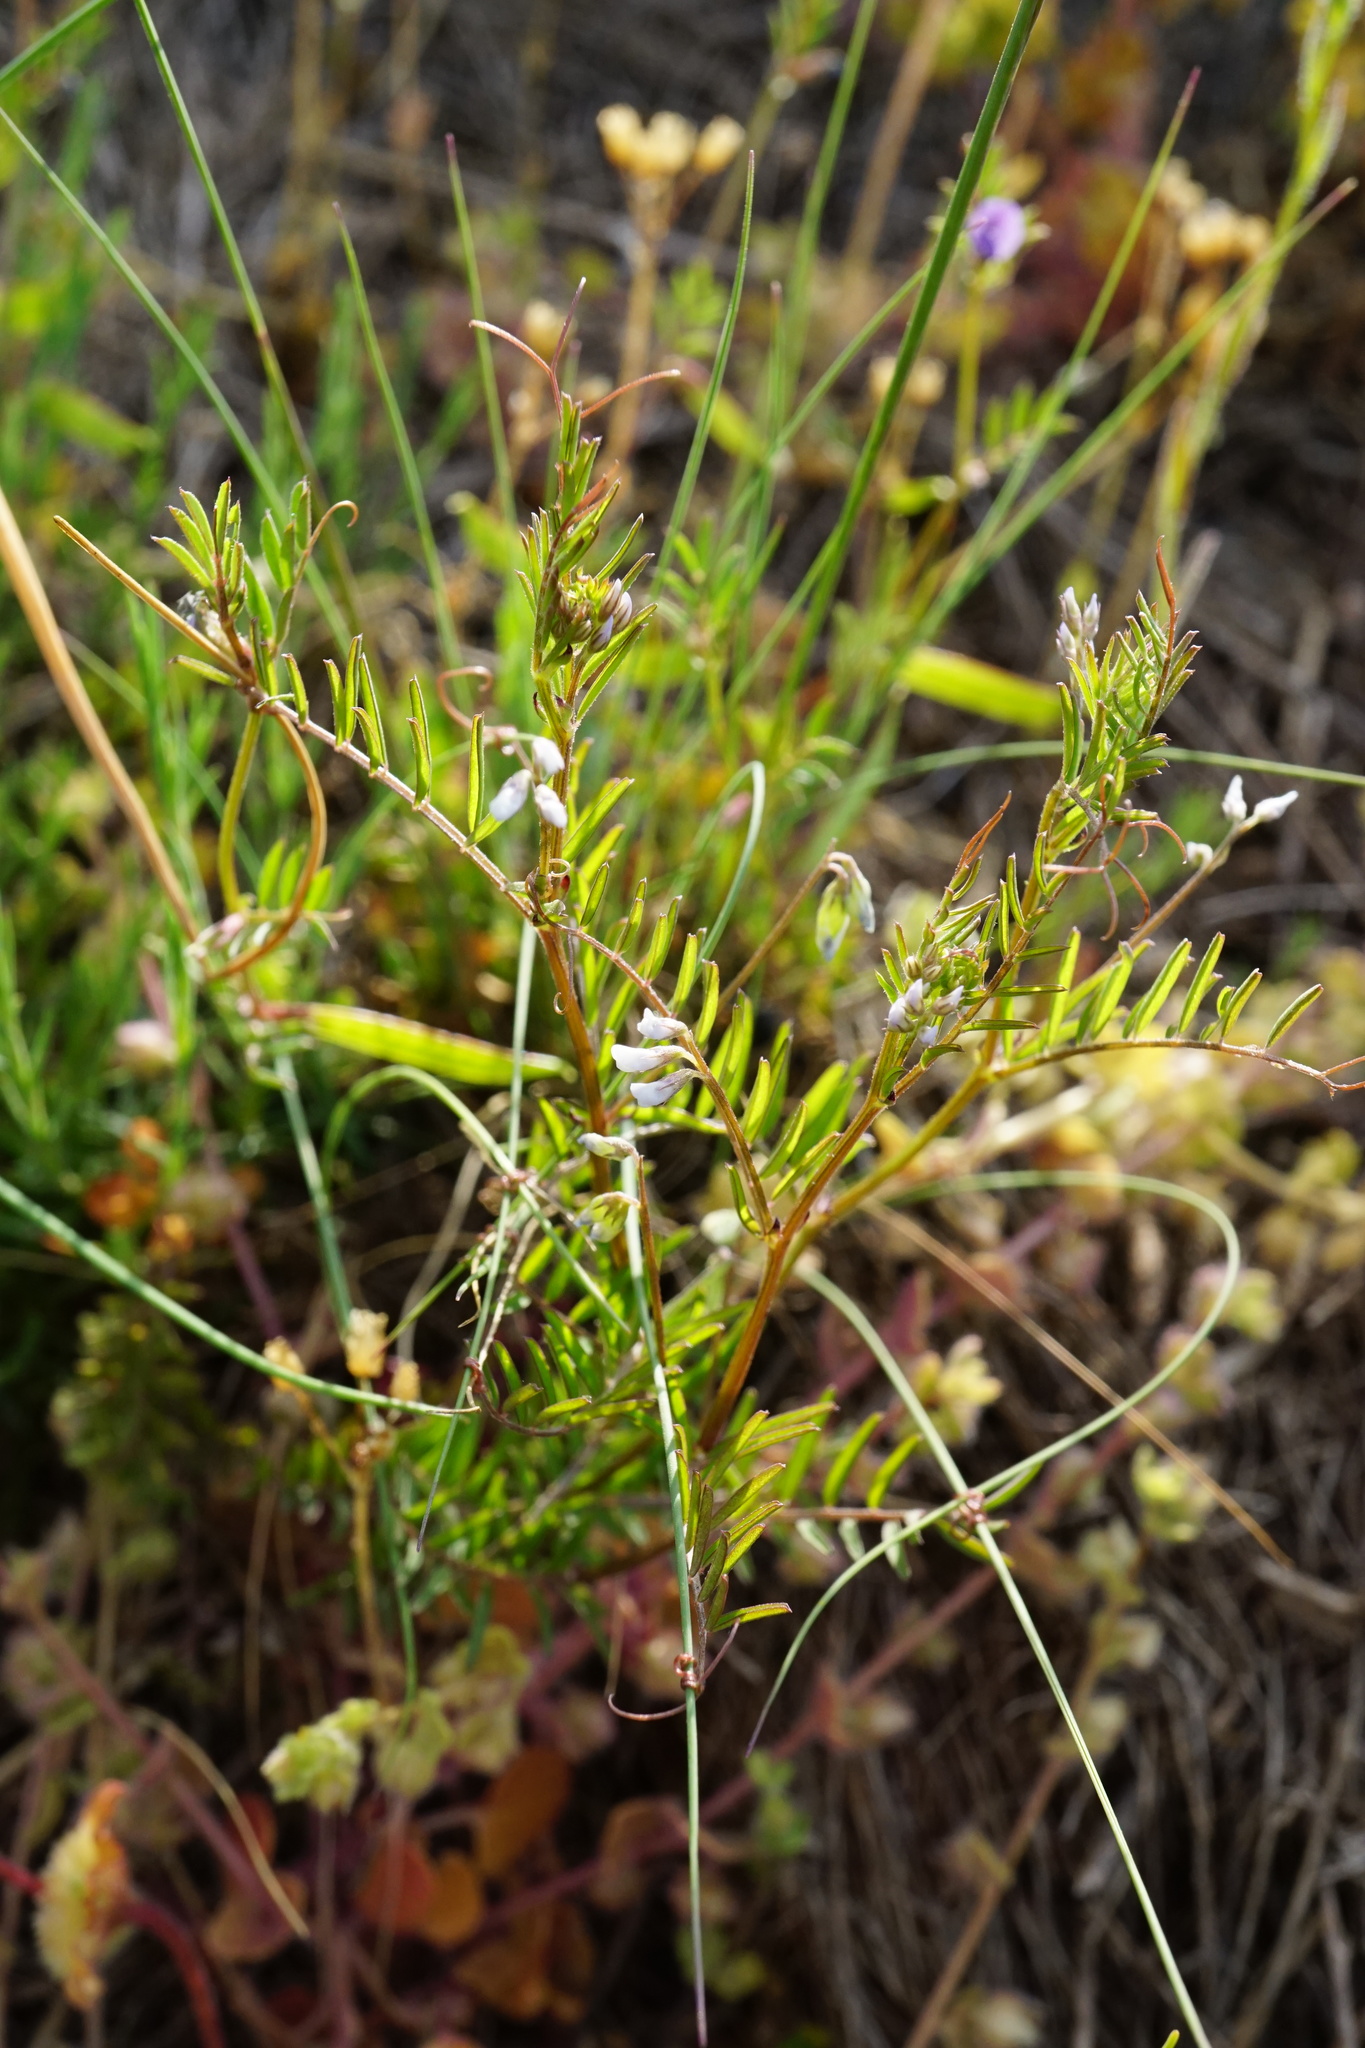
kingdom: Plantae
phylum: Tracheophyta
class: Magnoliopsida
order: Fabales
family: Fabaceae
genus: Vicia
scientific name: Vicia hirsuta
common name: Tiny vetch
